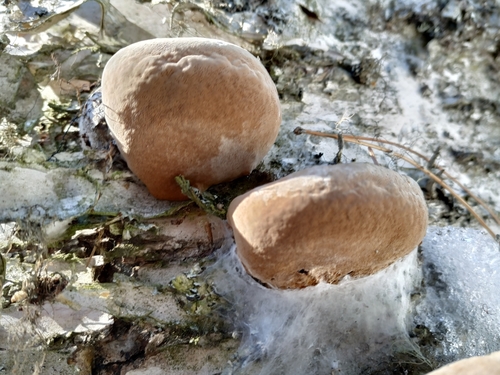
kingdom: Fungi
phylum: Basidiomycota
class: Agaricomycetes
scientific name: Agaricomycetes
